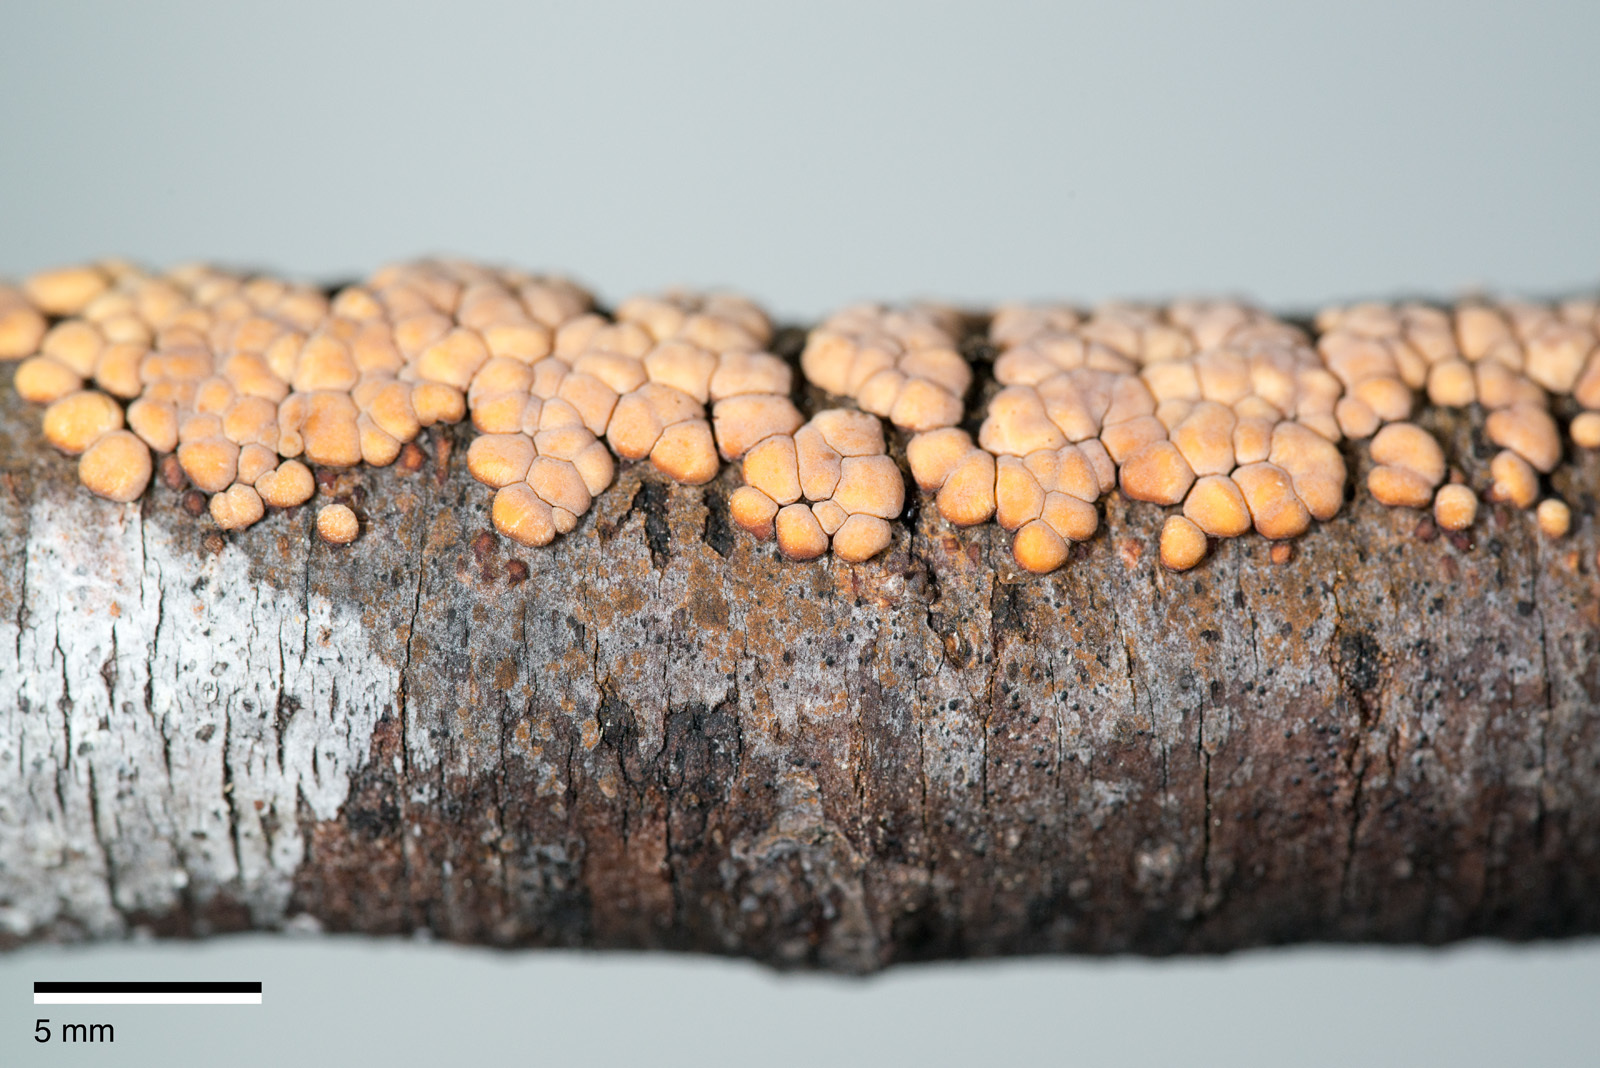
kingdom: Fungi
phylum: Basidiomycota
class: Agaricomycetes
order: Russulales
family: Stereaceae
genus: Aleurodiscus
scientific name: Aleurodiscus berggrenii
